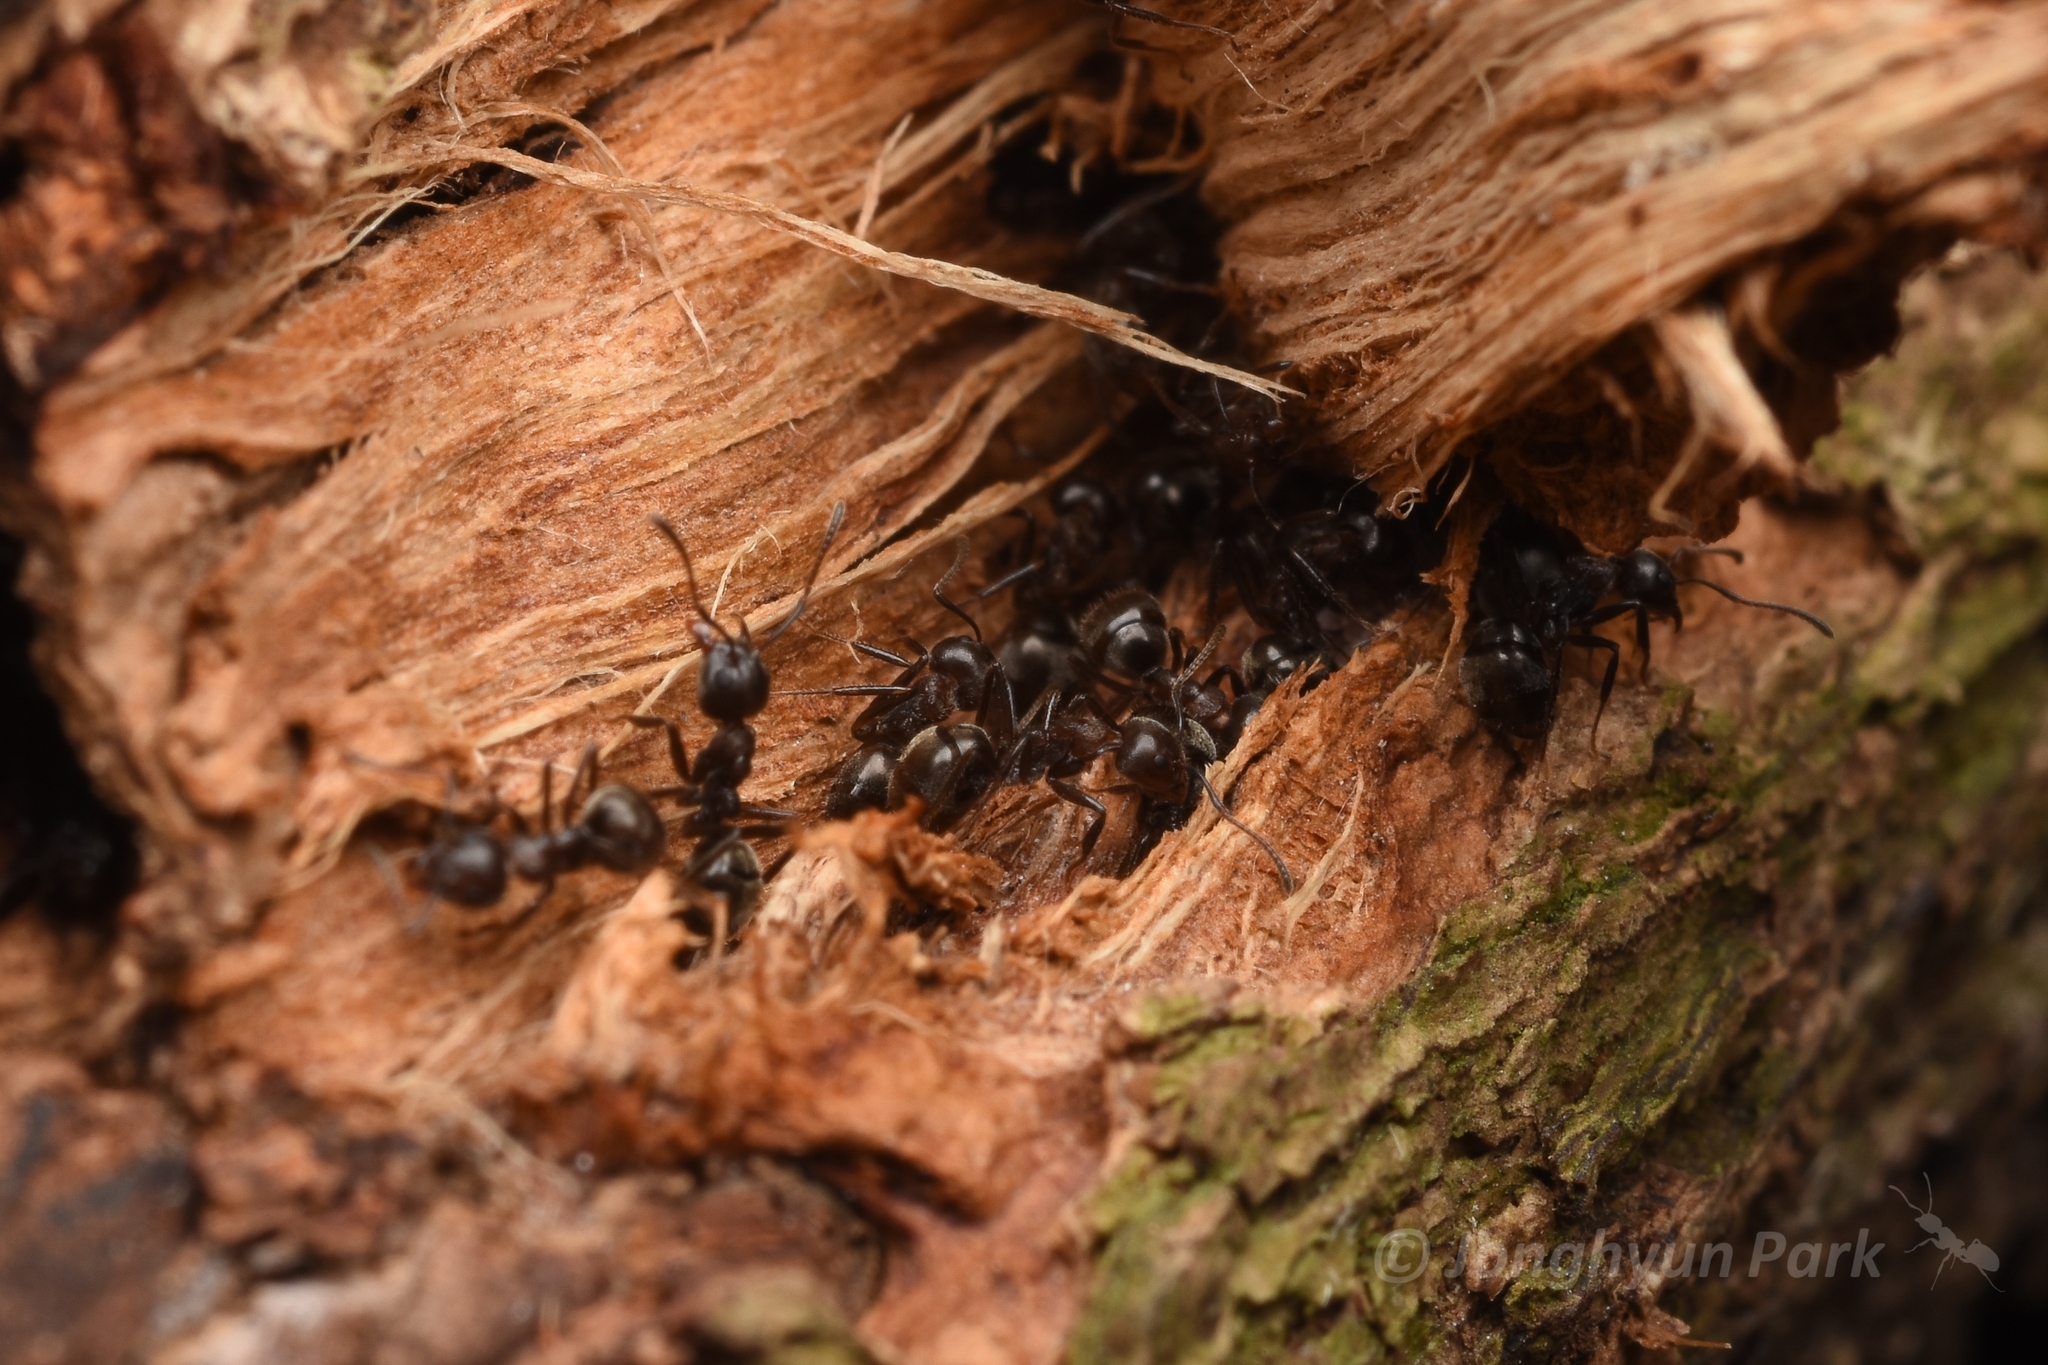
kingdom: Animalia
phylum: Arthropoda
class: Insecta
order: Hymenoptera
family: Formicidae
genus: Dolichoderus
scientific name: Dolichoderus thoracicus
